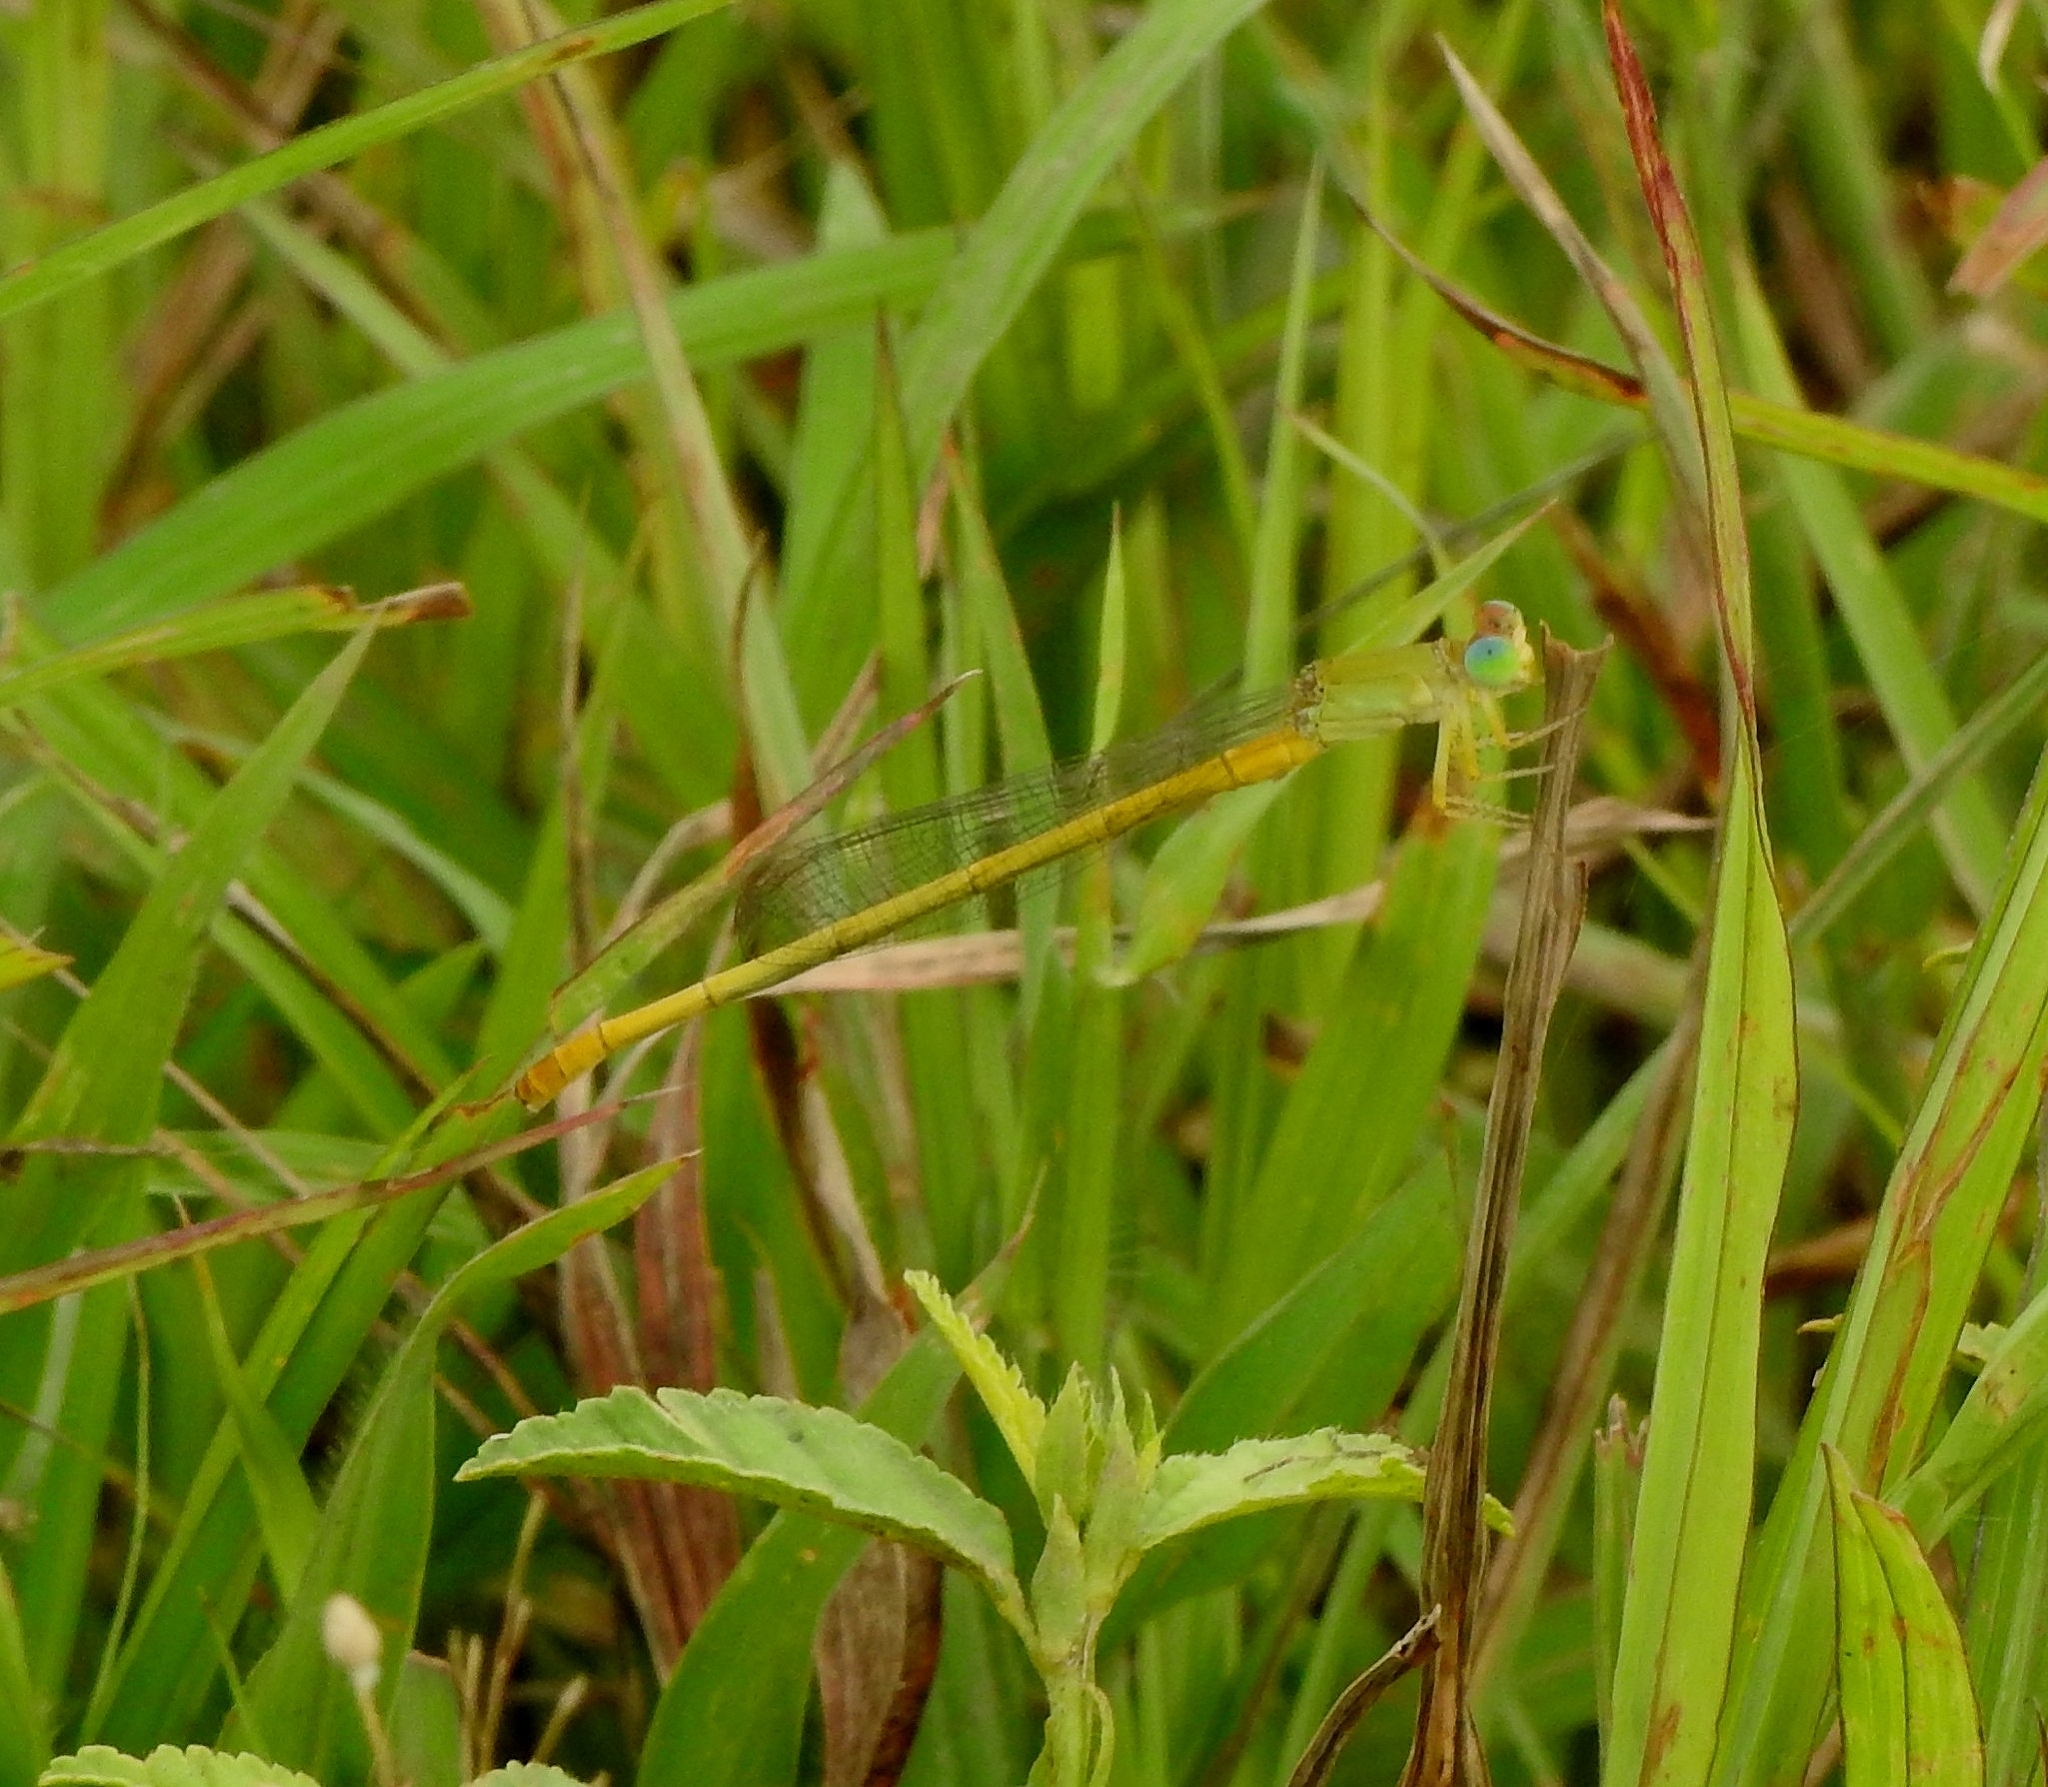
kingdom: Animalia
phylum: Arthropoda
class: Insecta
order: Odonata
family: Coenagrionidae
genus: Ceriagrion
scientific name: Ceriagrion coromandelianum
